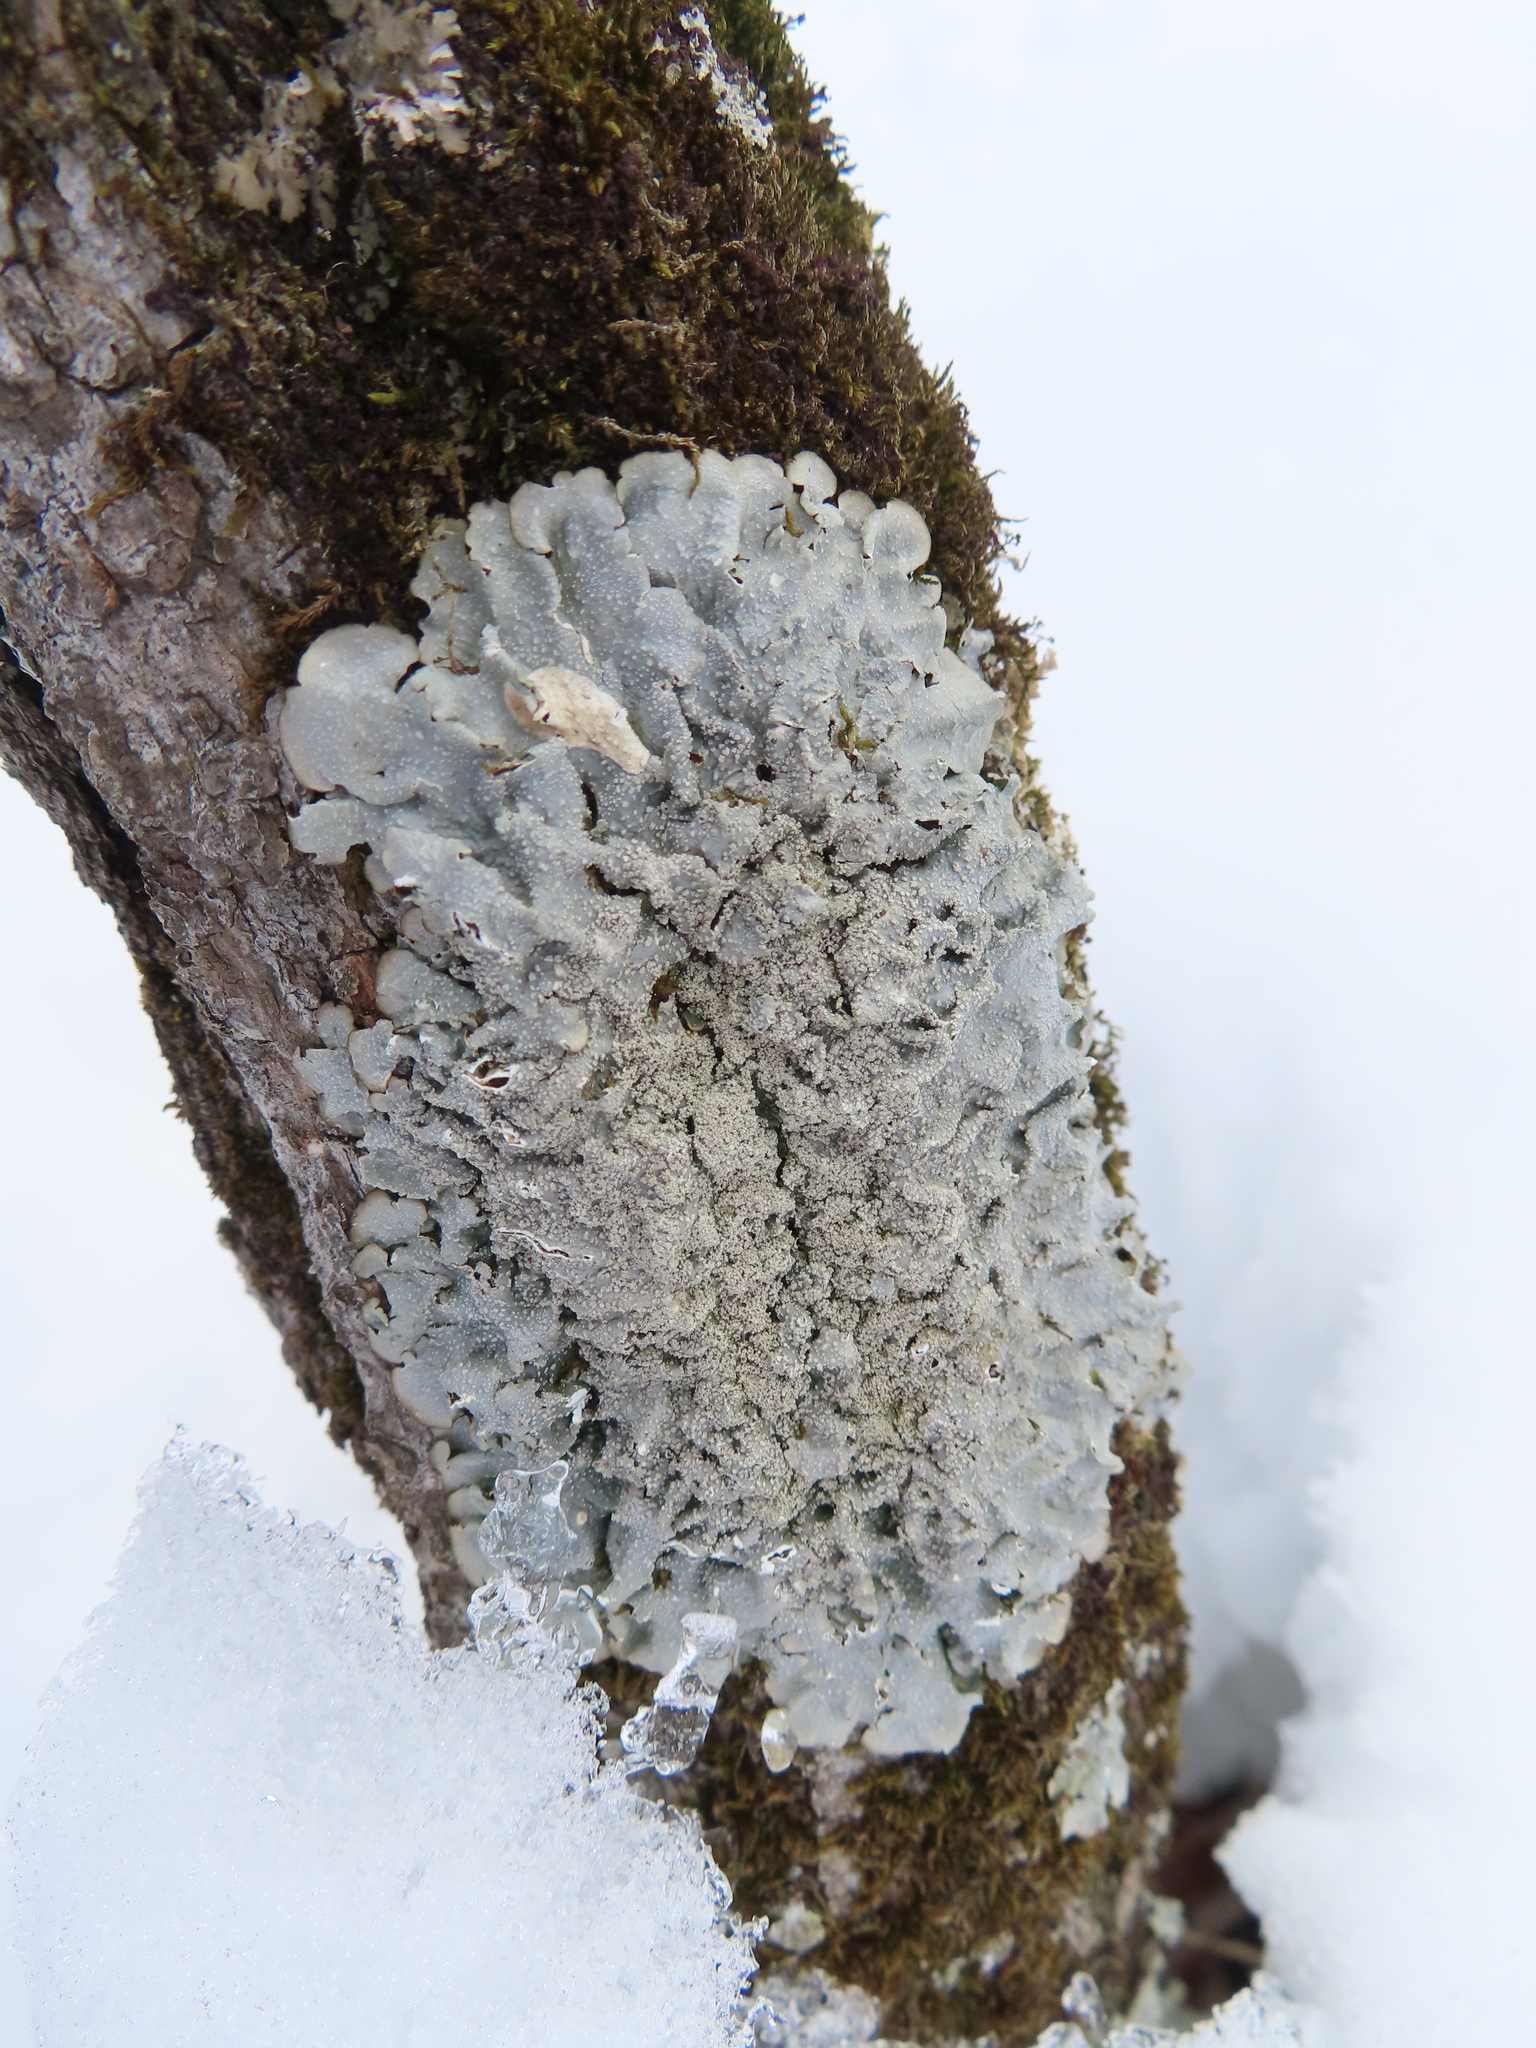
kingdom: Fungi
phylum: Ascomycota
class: Lecanoromycetes
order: Lecanorales
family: Parmeliaceae
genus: Punctelia
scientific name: Punctelia missouriensis
